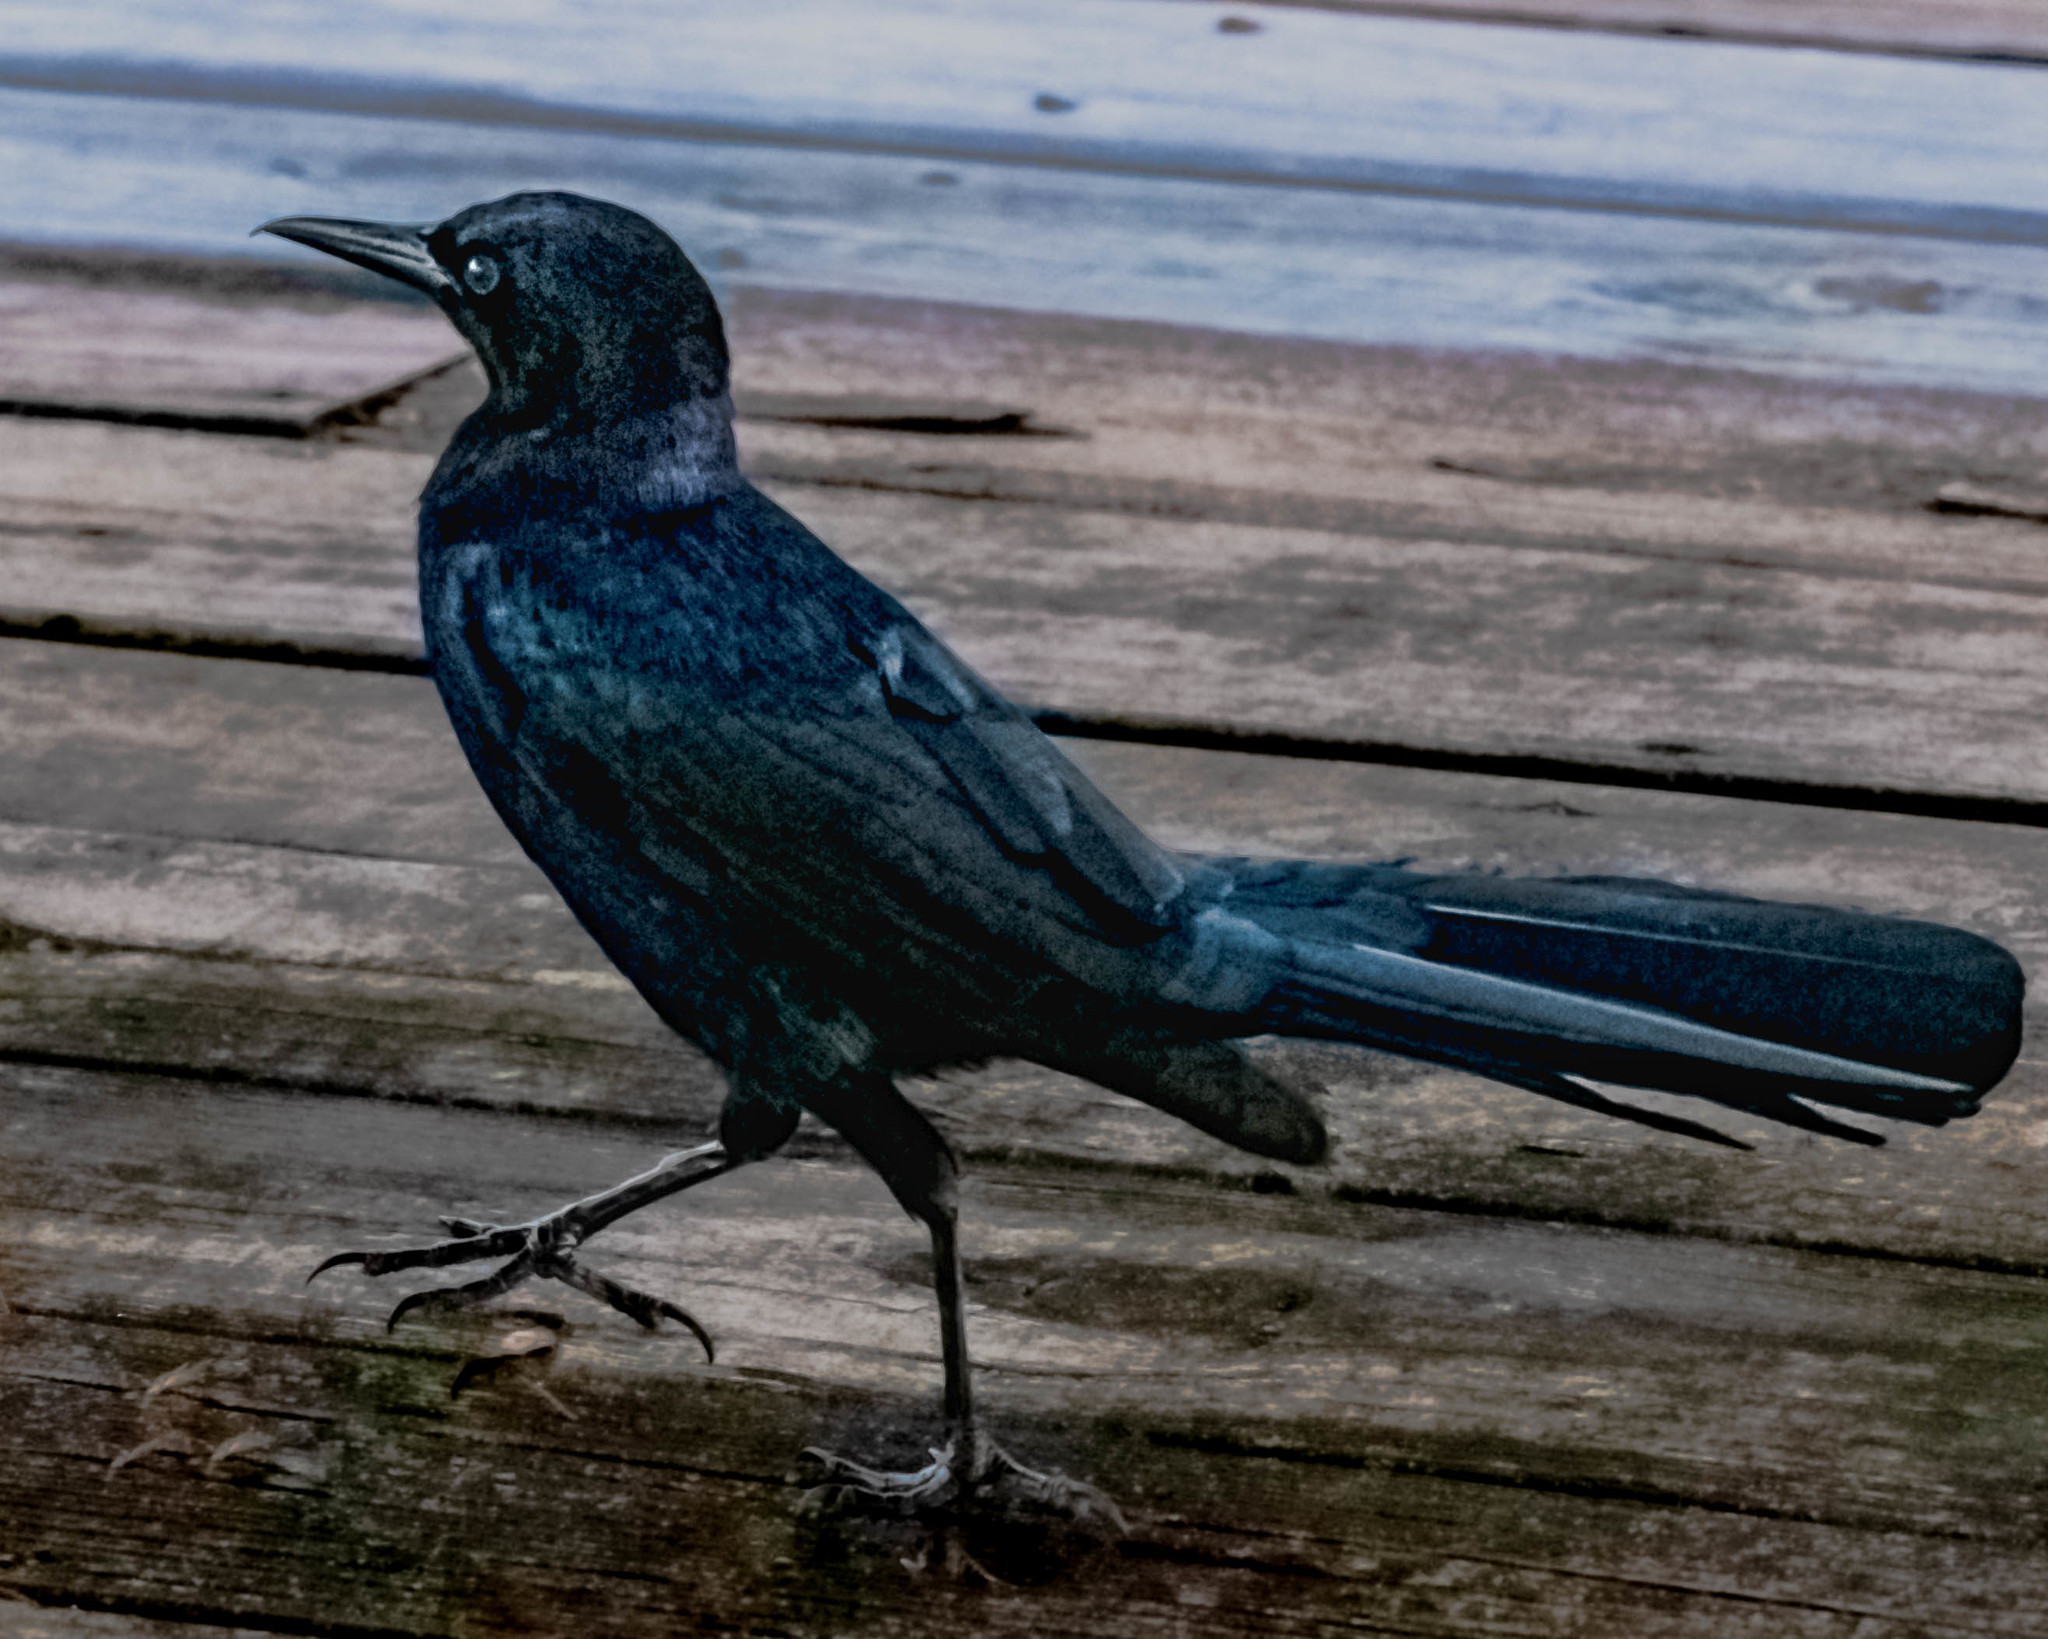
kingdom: Animalia
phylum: Chordata
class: Aves
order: Passeriformes
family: Icteridae
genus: Quiscalus
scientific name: Quiscalus major
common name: Boat-tailed grackle
